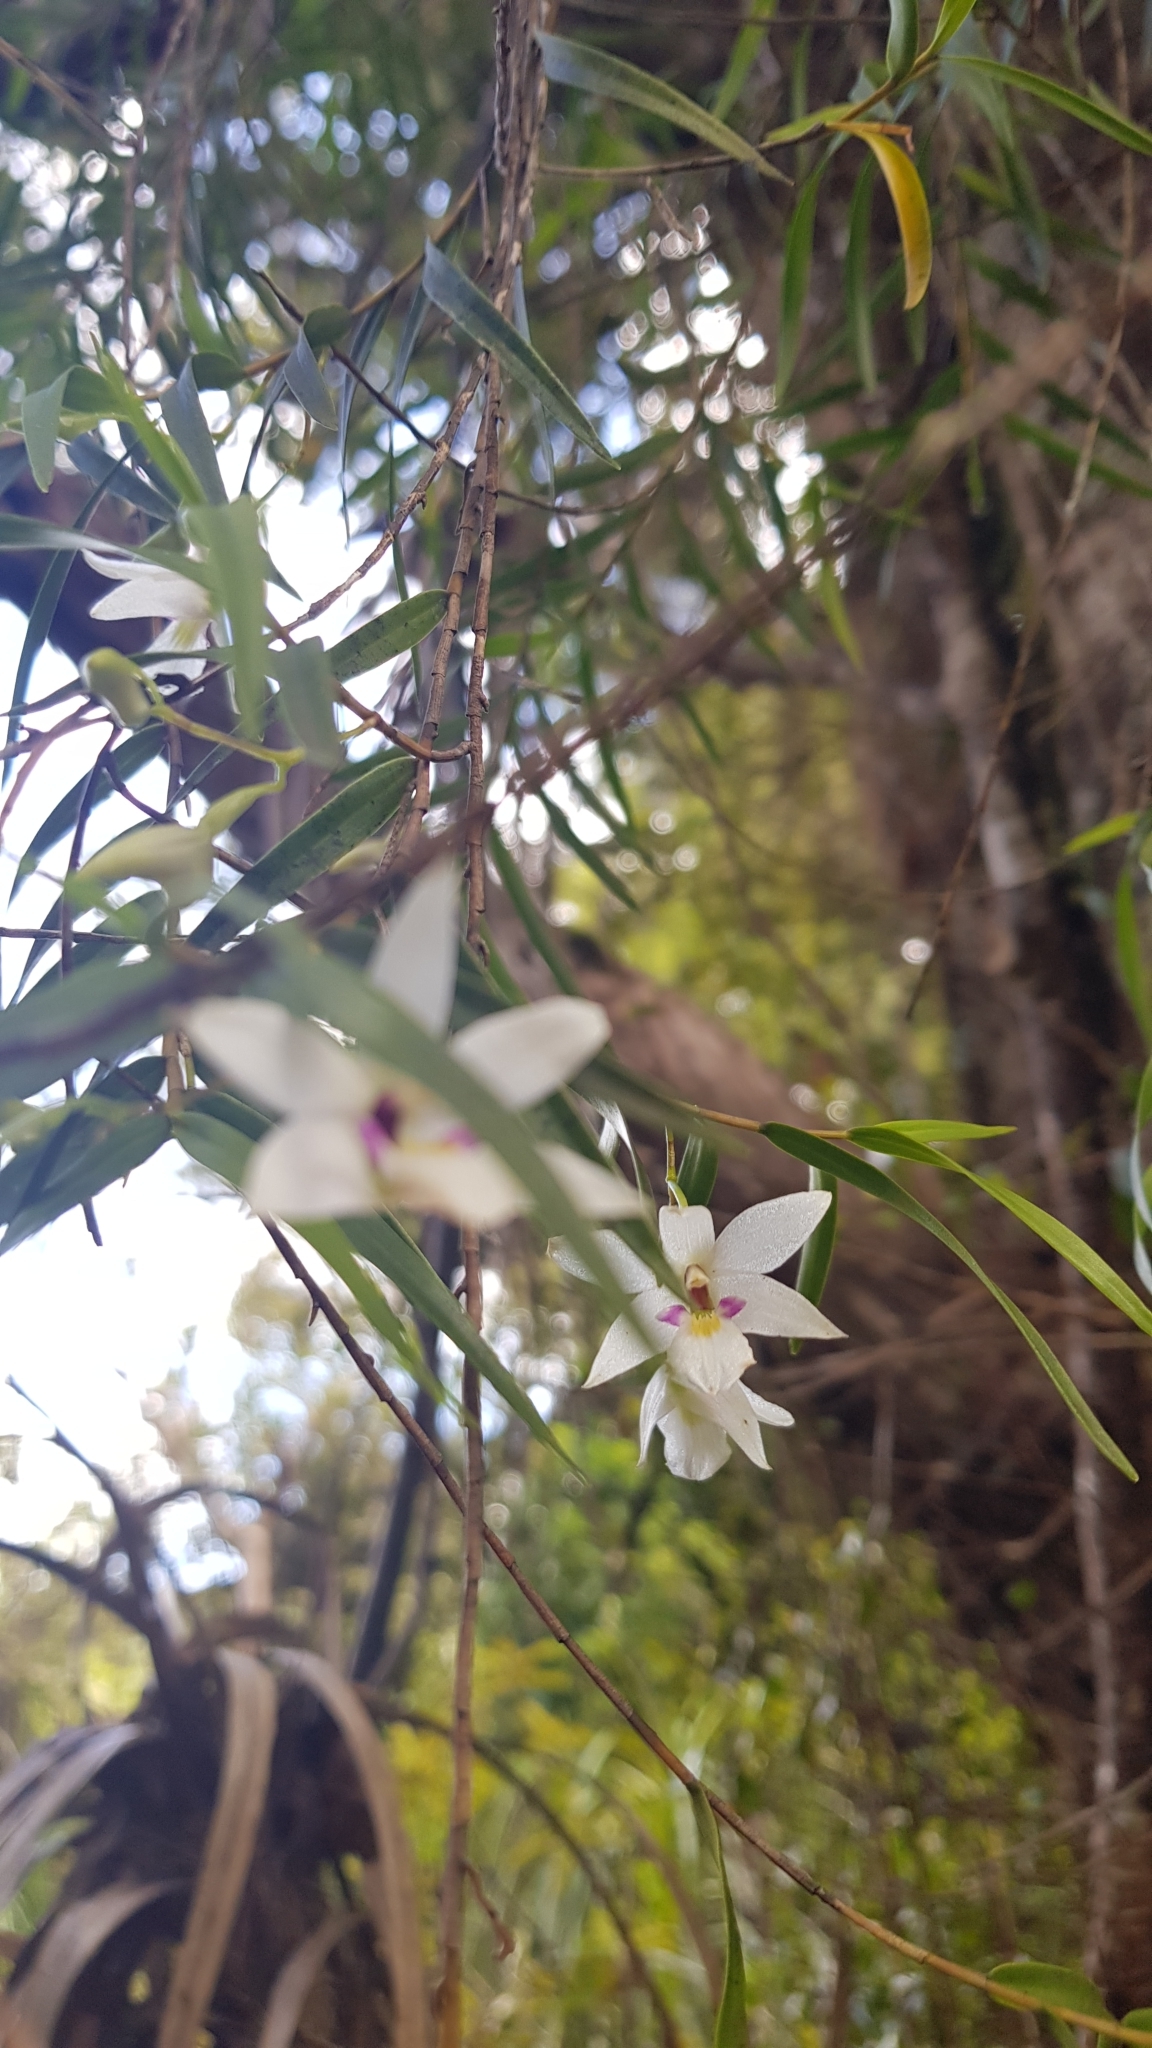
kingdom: Plantae
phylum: Tracheophyta
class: Liliopsida
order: Asparagales
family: Orchidaceae
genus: Dendrobium
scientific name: Dendrobium cunninghamii
